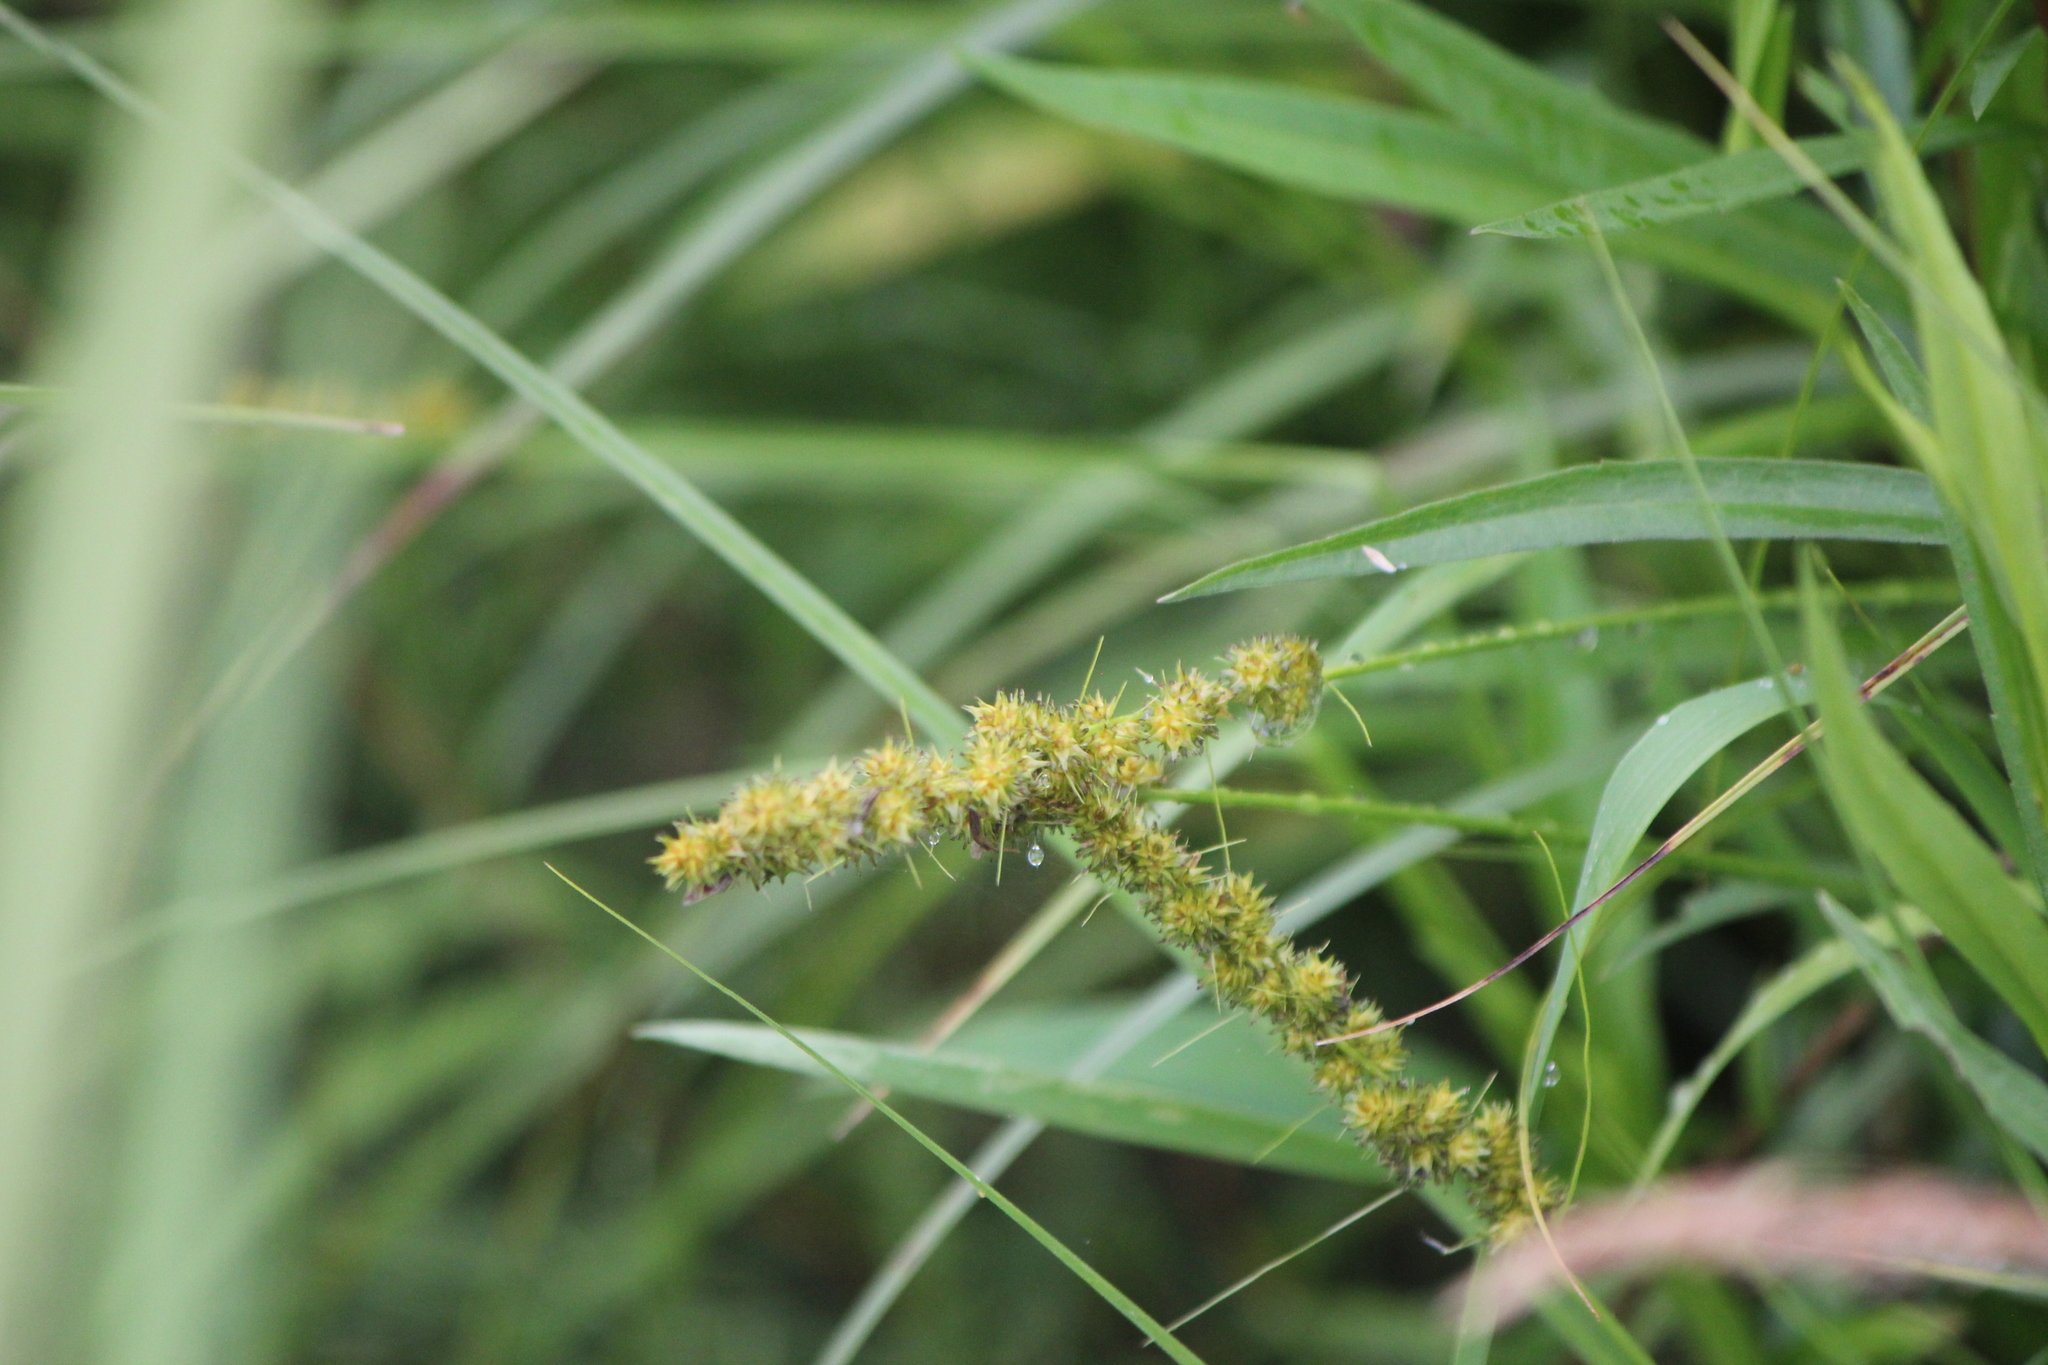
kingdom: Plantae
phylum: Tracheophyta
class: Liliopsida
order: Poales
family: Cyperaceae
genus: Carex
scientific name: Carex vulpinoidea
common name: American fox-sedge
